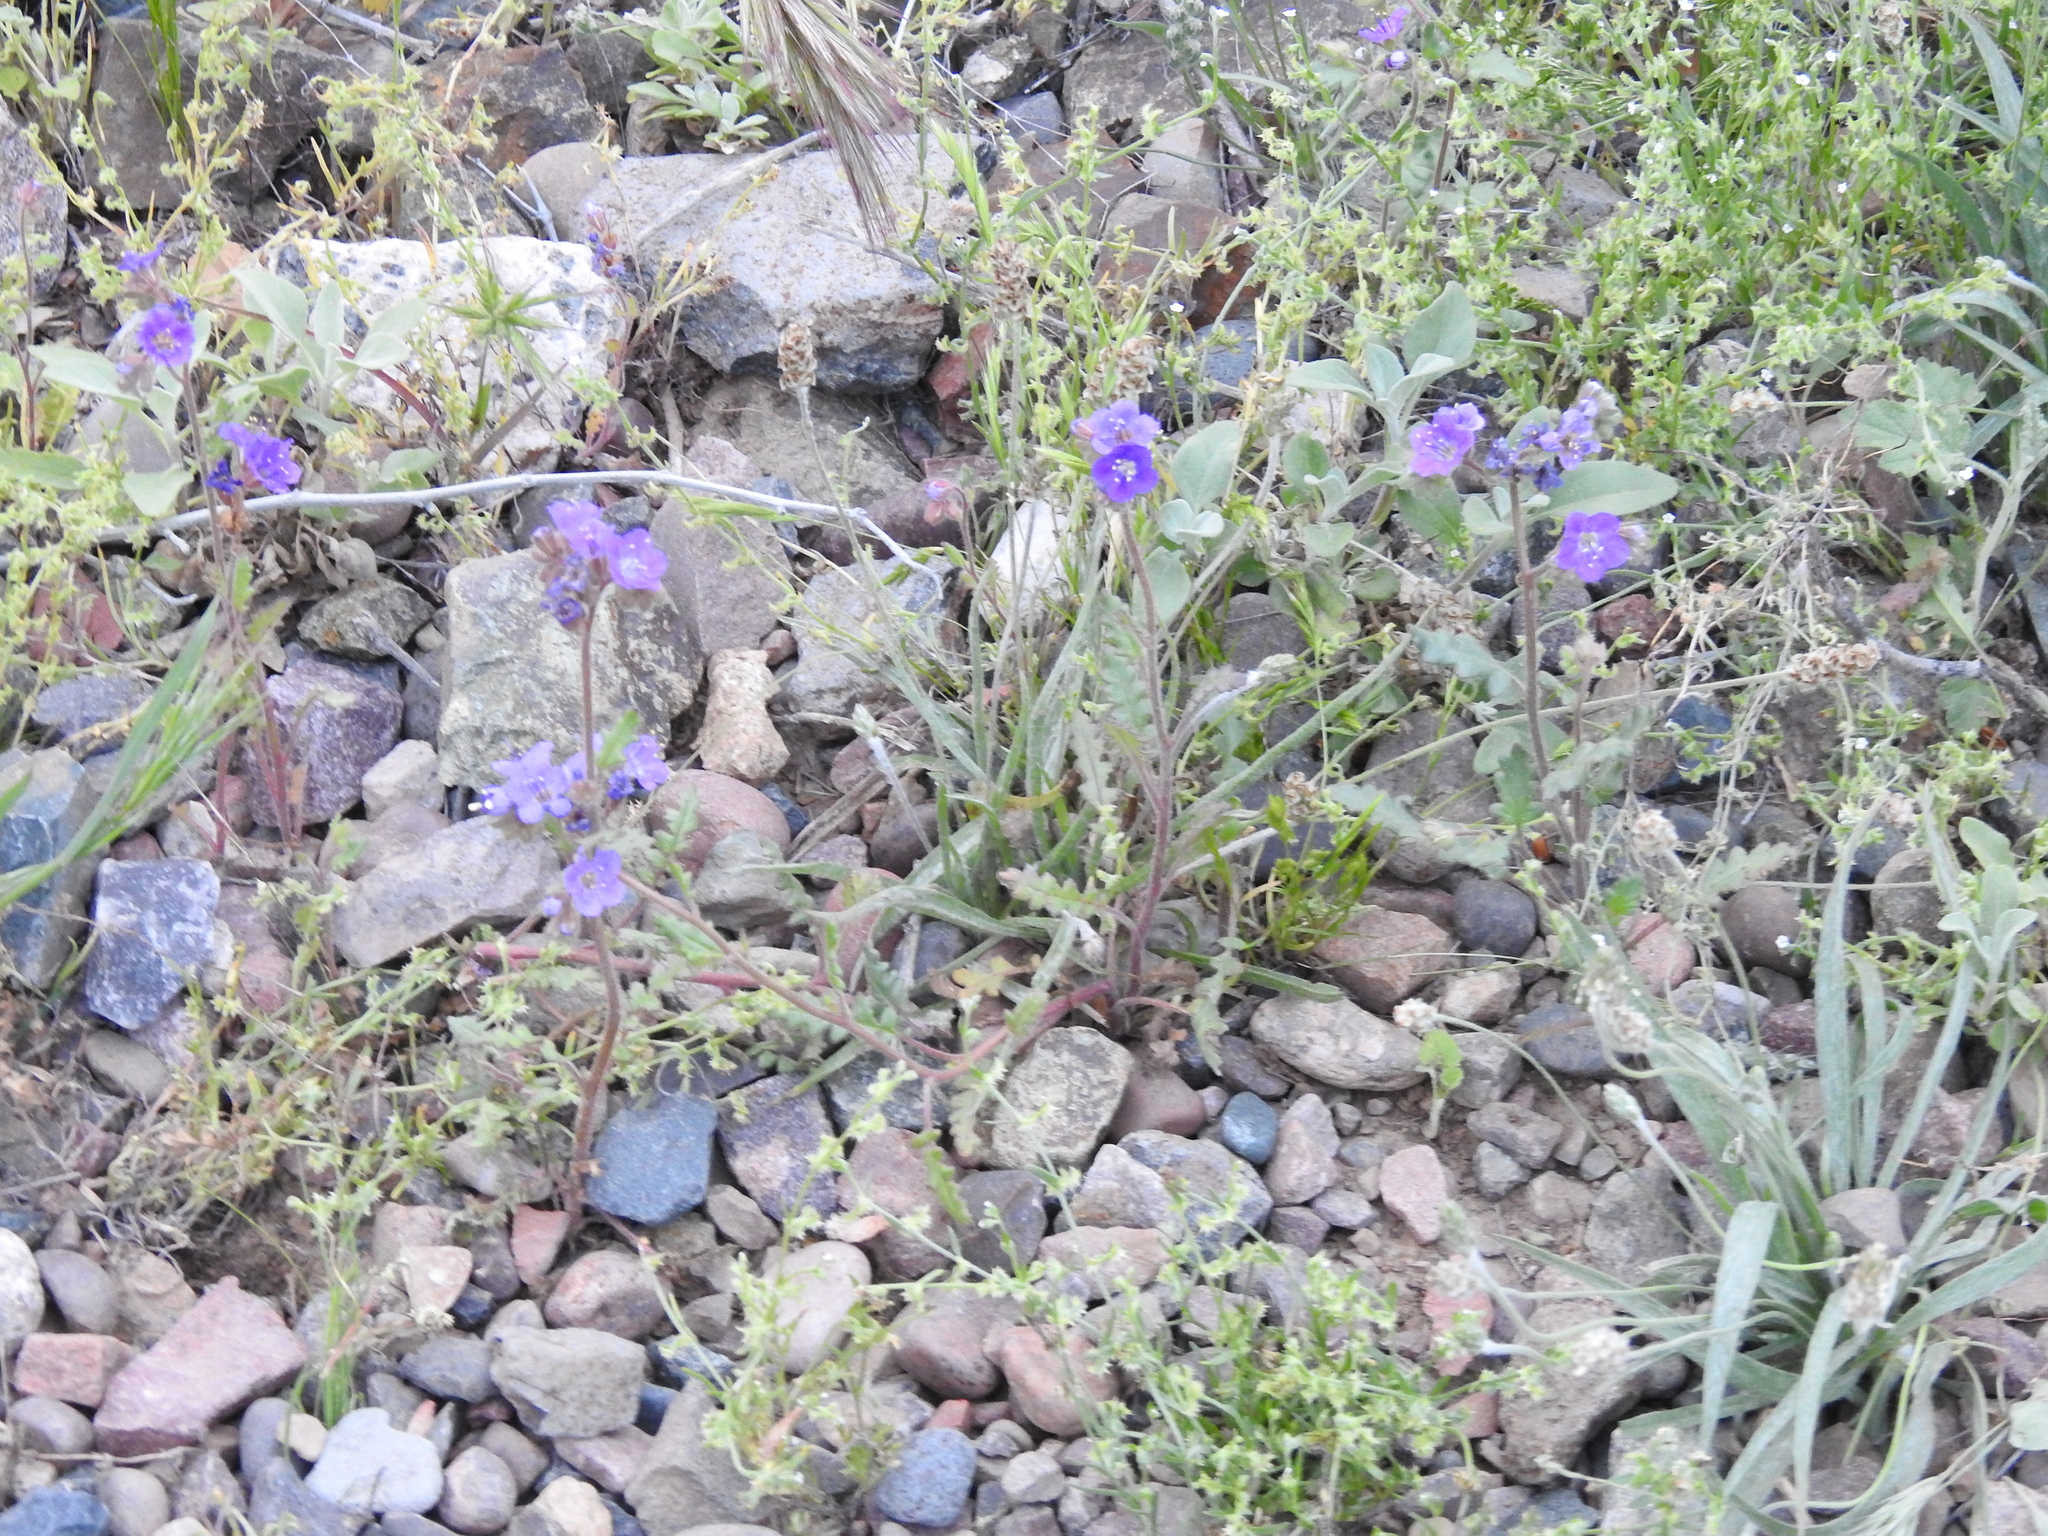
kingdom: Plantae
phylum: Tracheophyta
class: Magnoliopsida
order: Boraginales
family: Hydrophyllaceae
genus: Phacelia
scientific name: Phacelia crenulata
